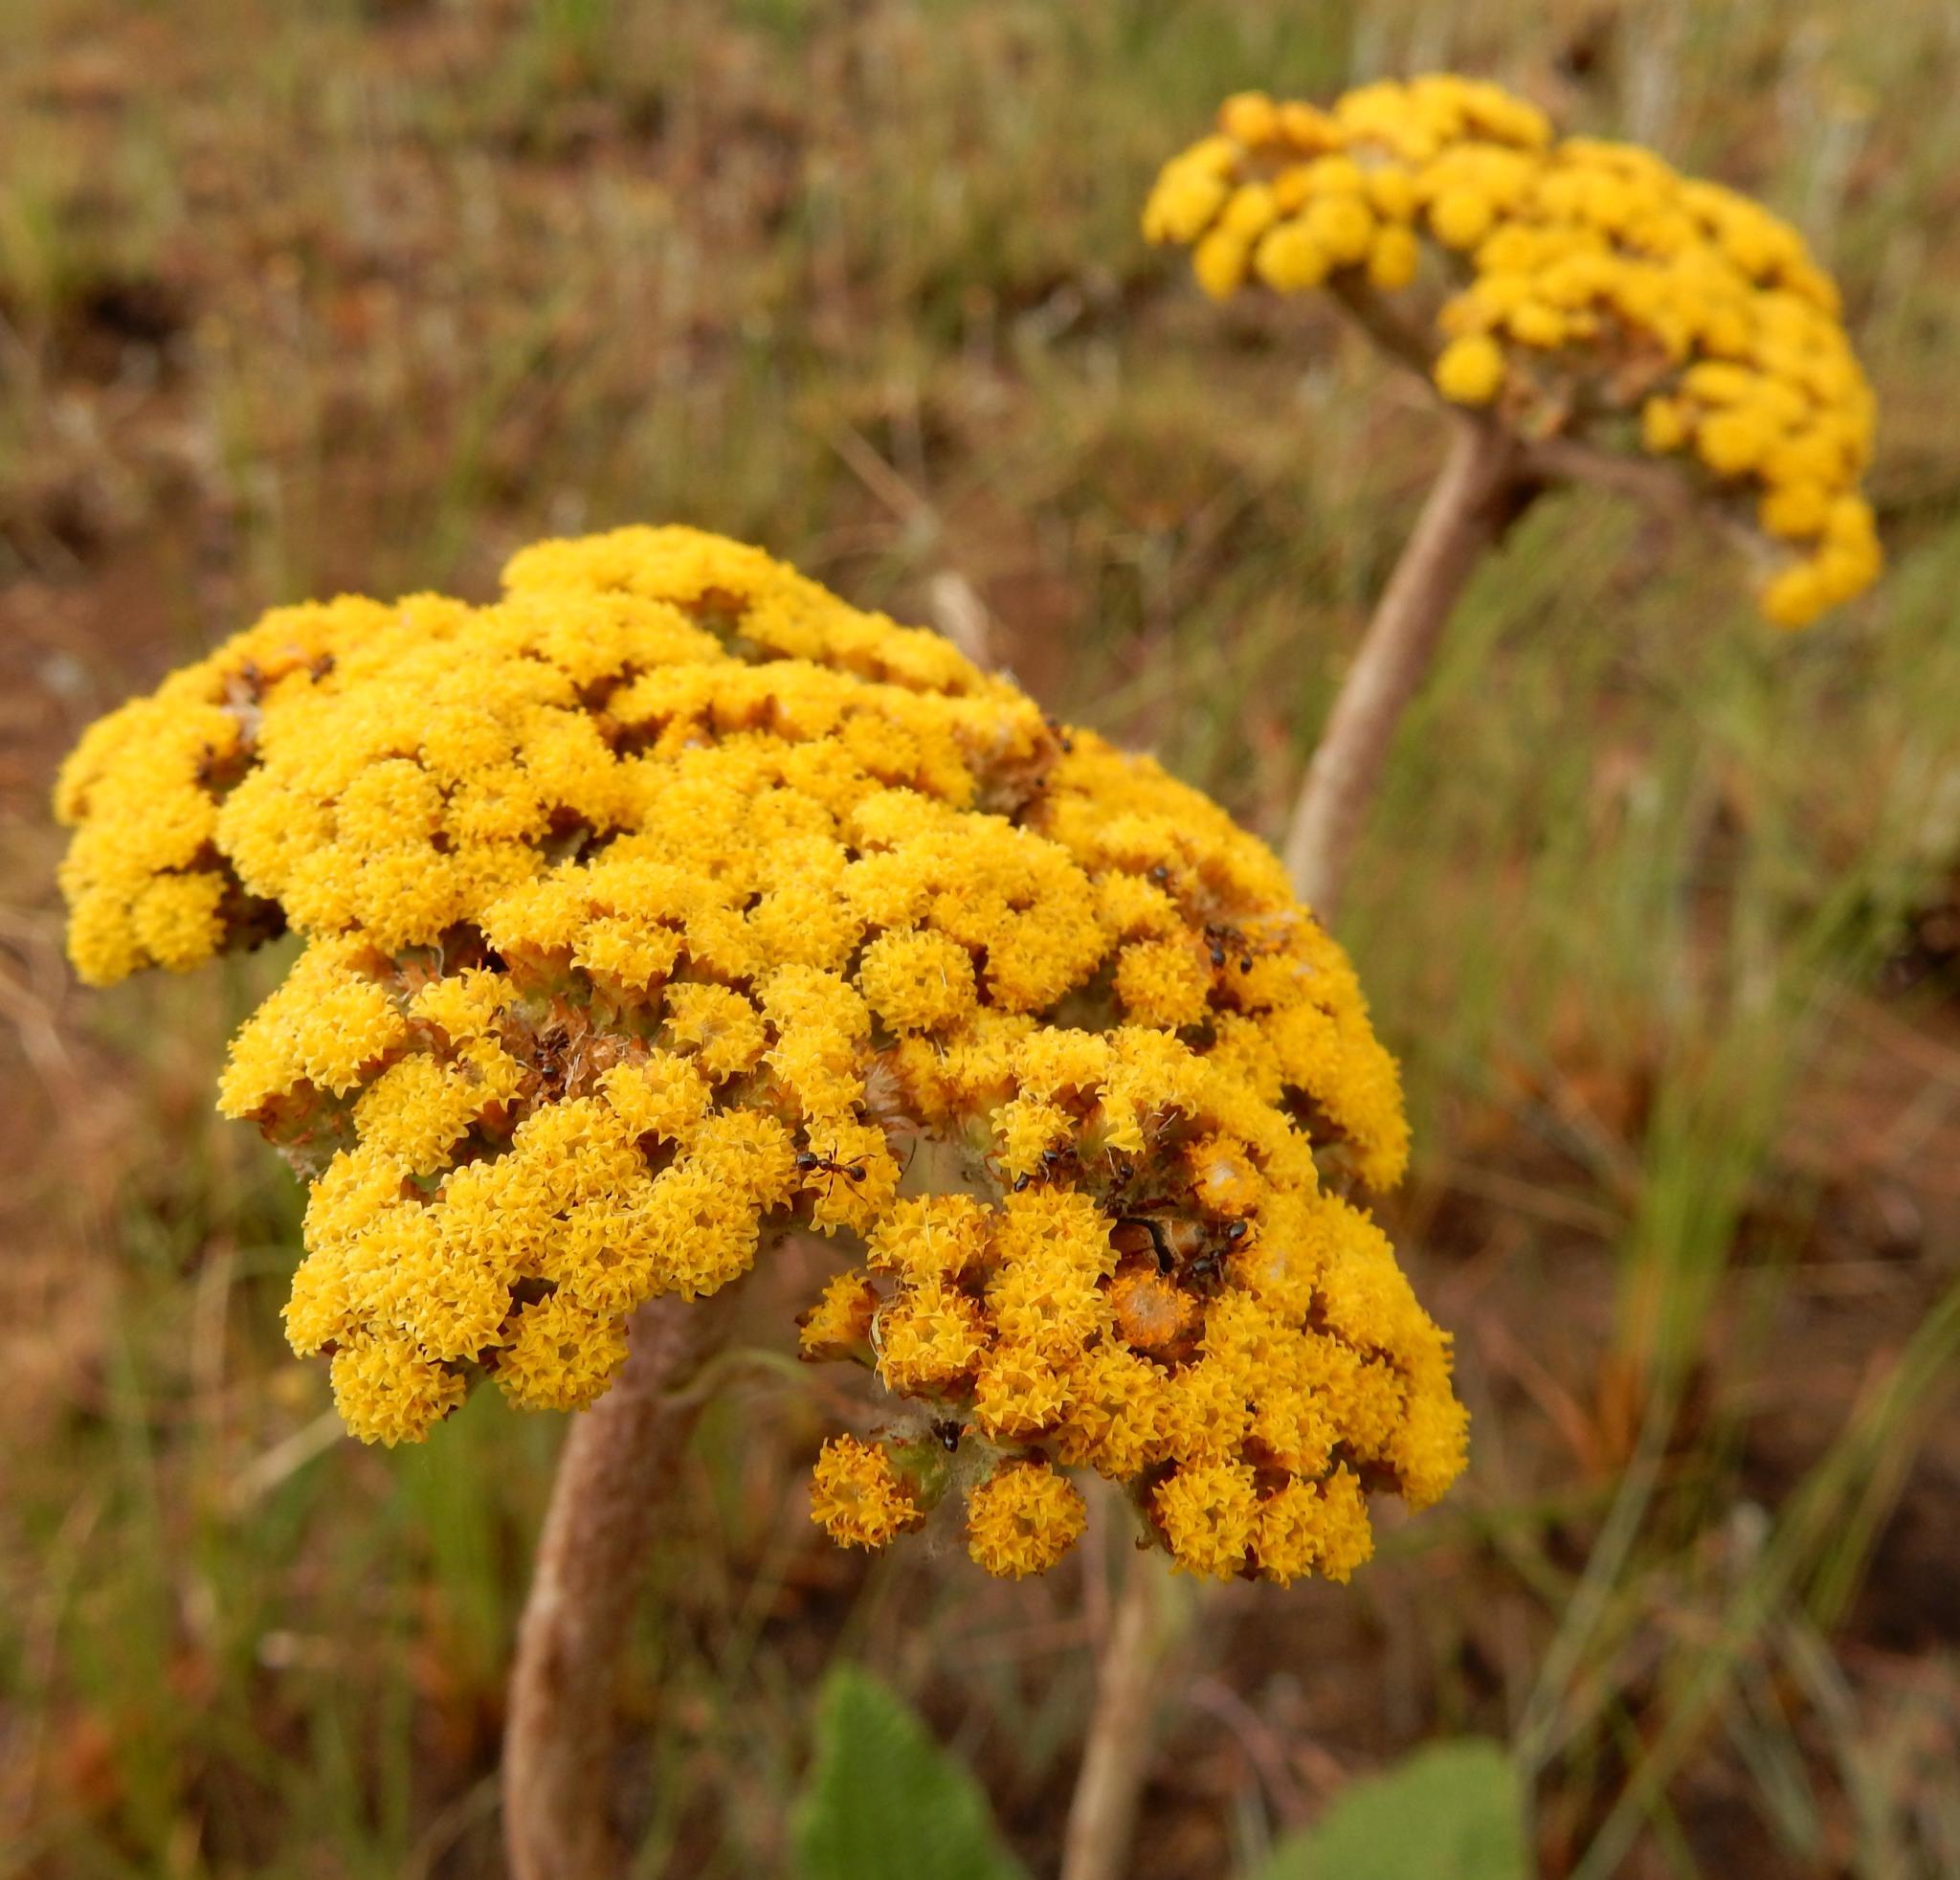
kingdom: Plantae
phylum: Tracheophyta
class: Magnoliopsida
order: Asterales
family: Asteraceae
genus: Helichrysum
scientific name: Helichrysum nudifolium
